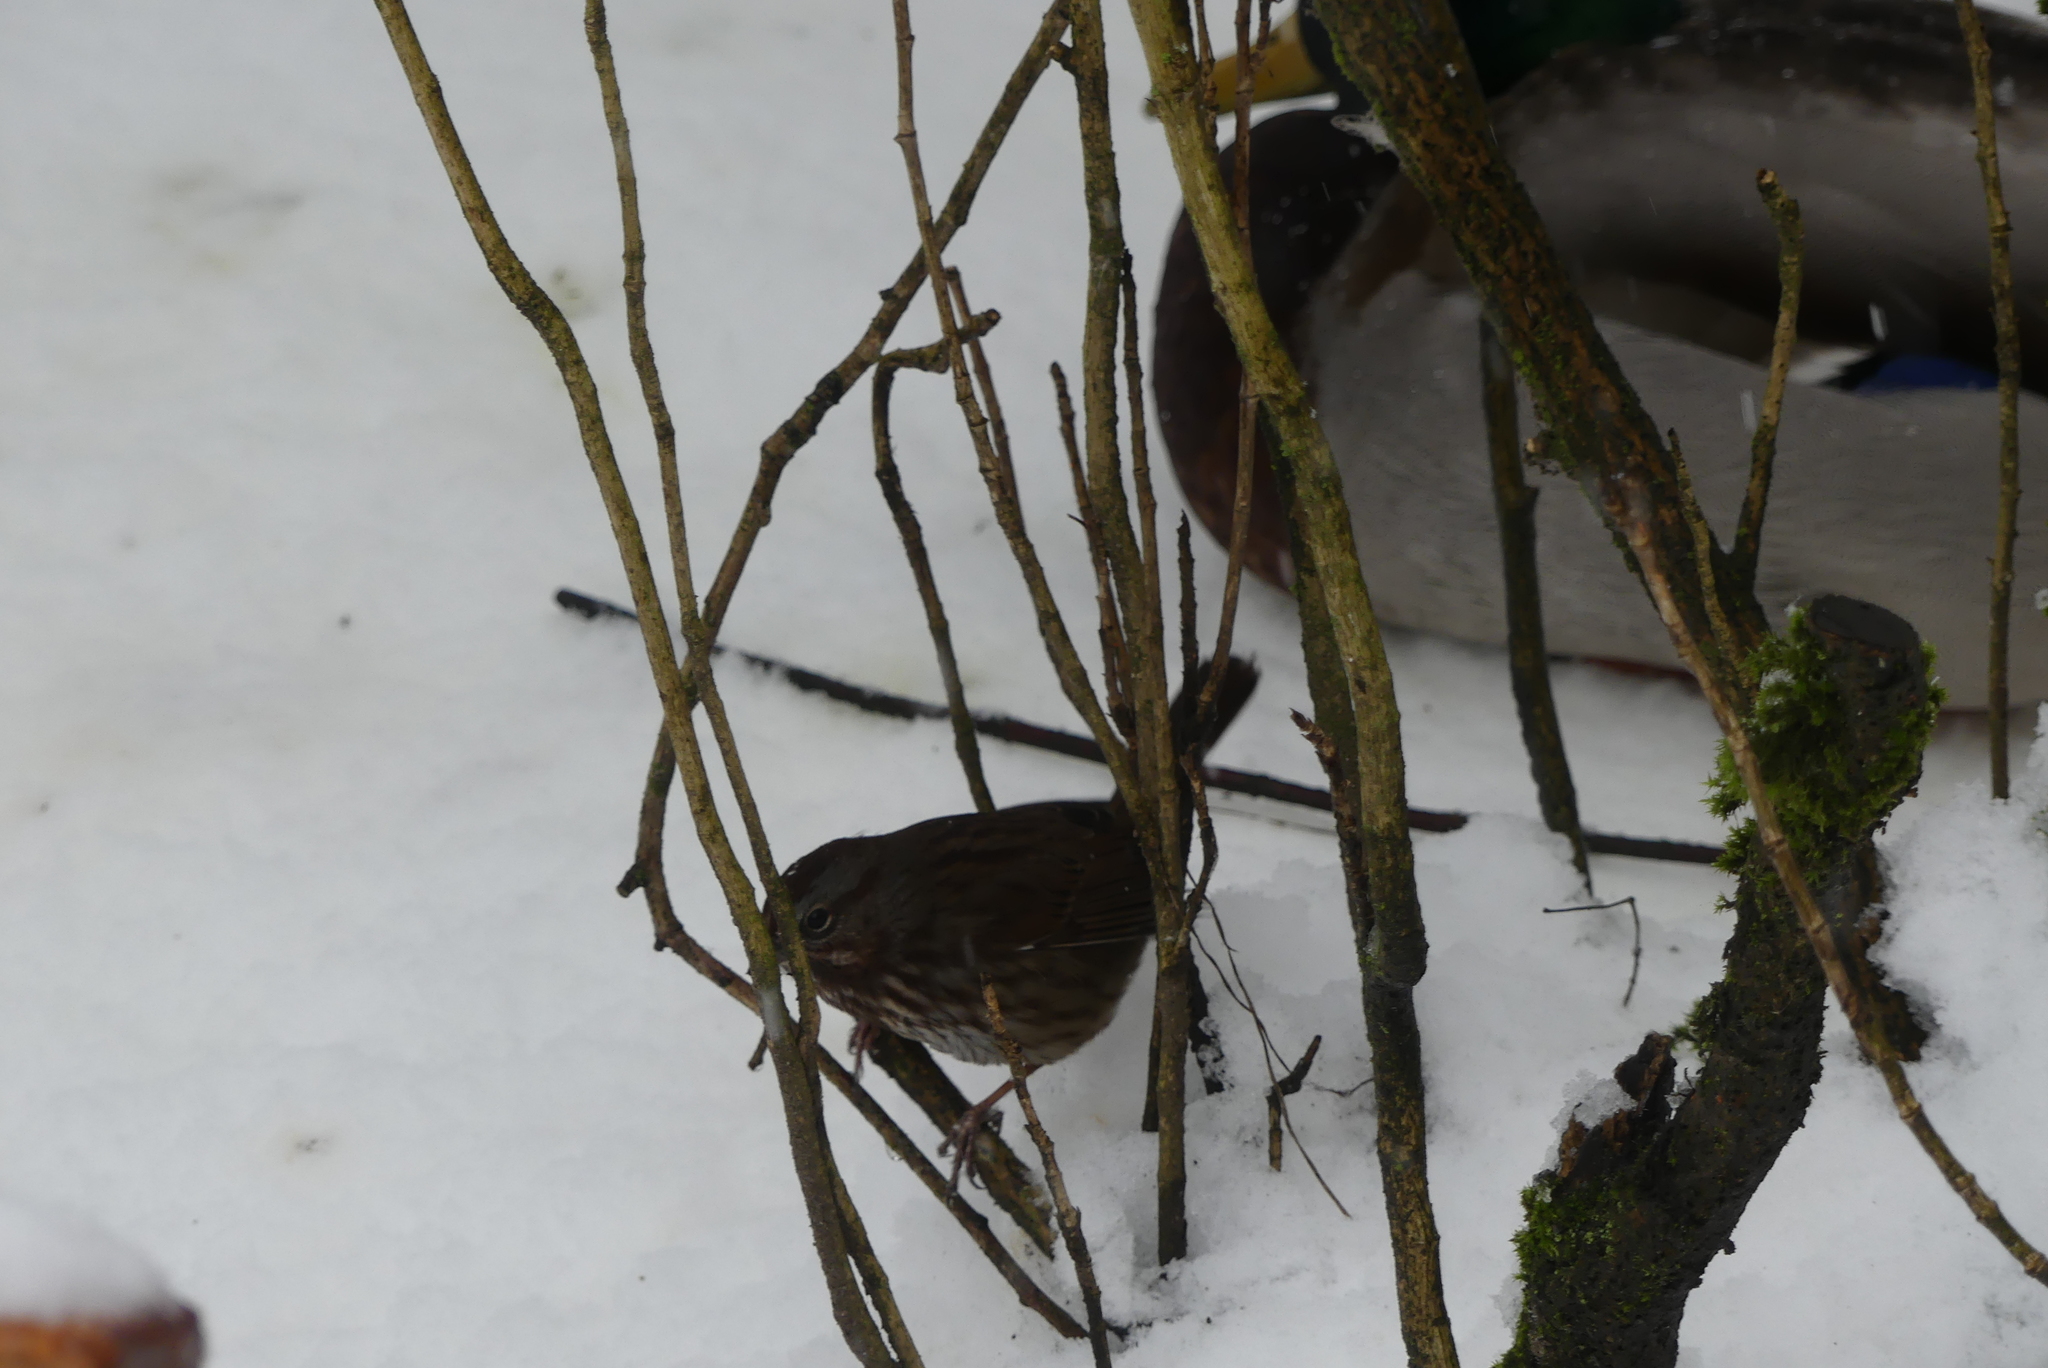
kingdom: Animalia
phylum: Chordata
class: Aves
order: Passeriformes
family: Passerellidae
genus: Melospiza
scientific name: Melospiza melodia
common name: Song sparrow
